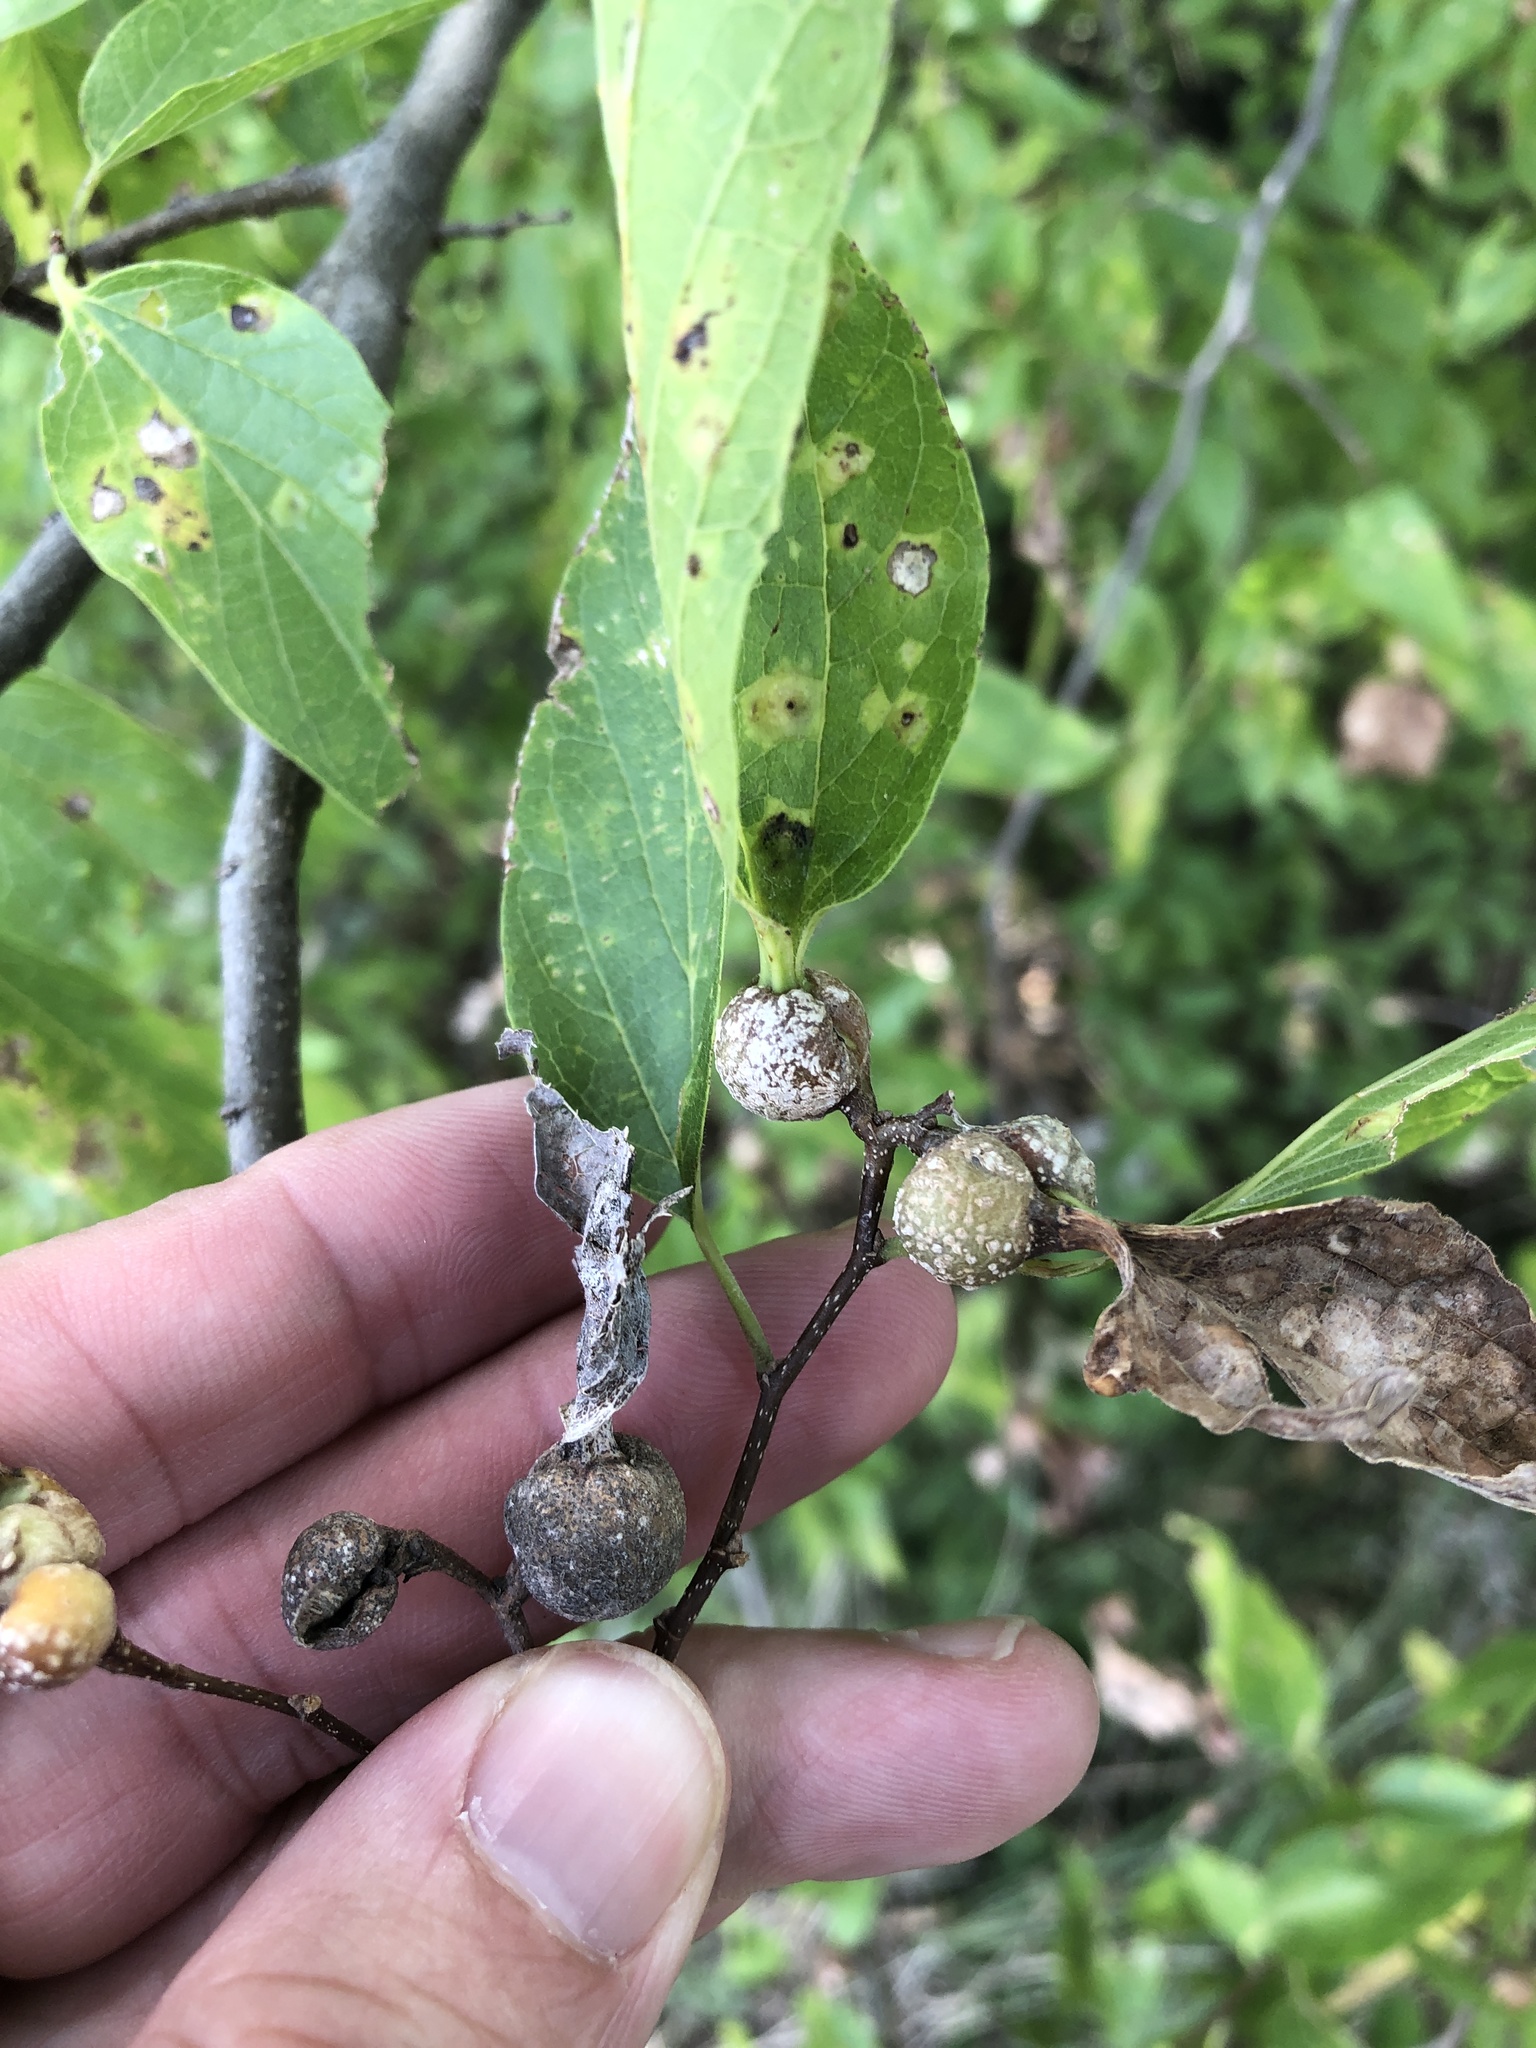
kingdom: Animalia
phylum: Arthropoda
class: Insecta
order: Hemiptera
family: Aphalaridae
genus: Pachypsylla
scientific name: Pachypsylla venusta
